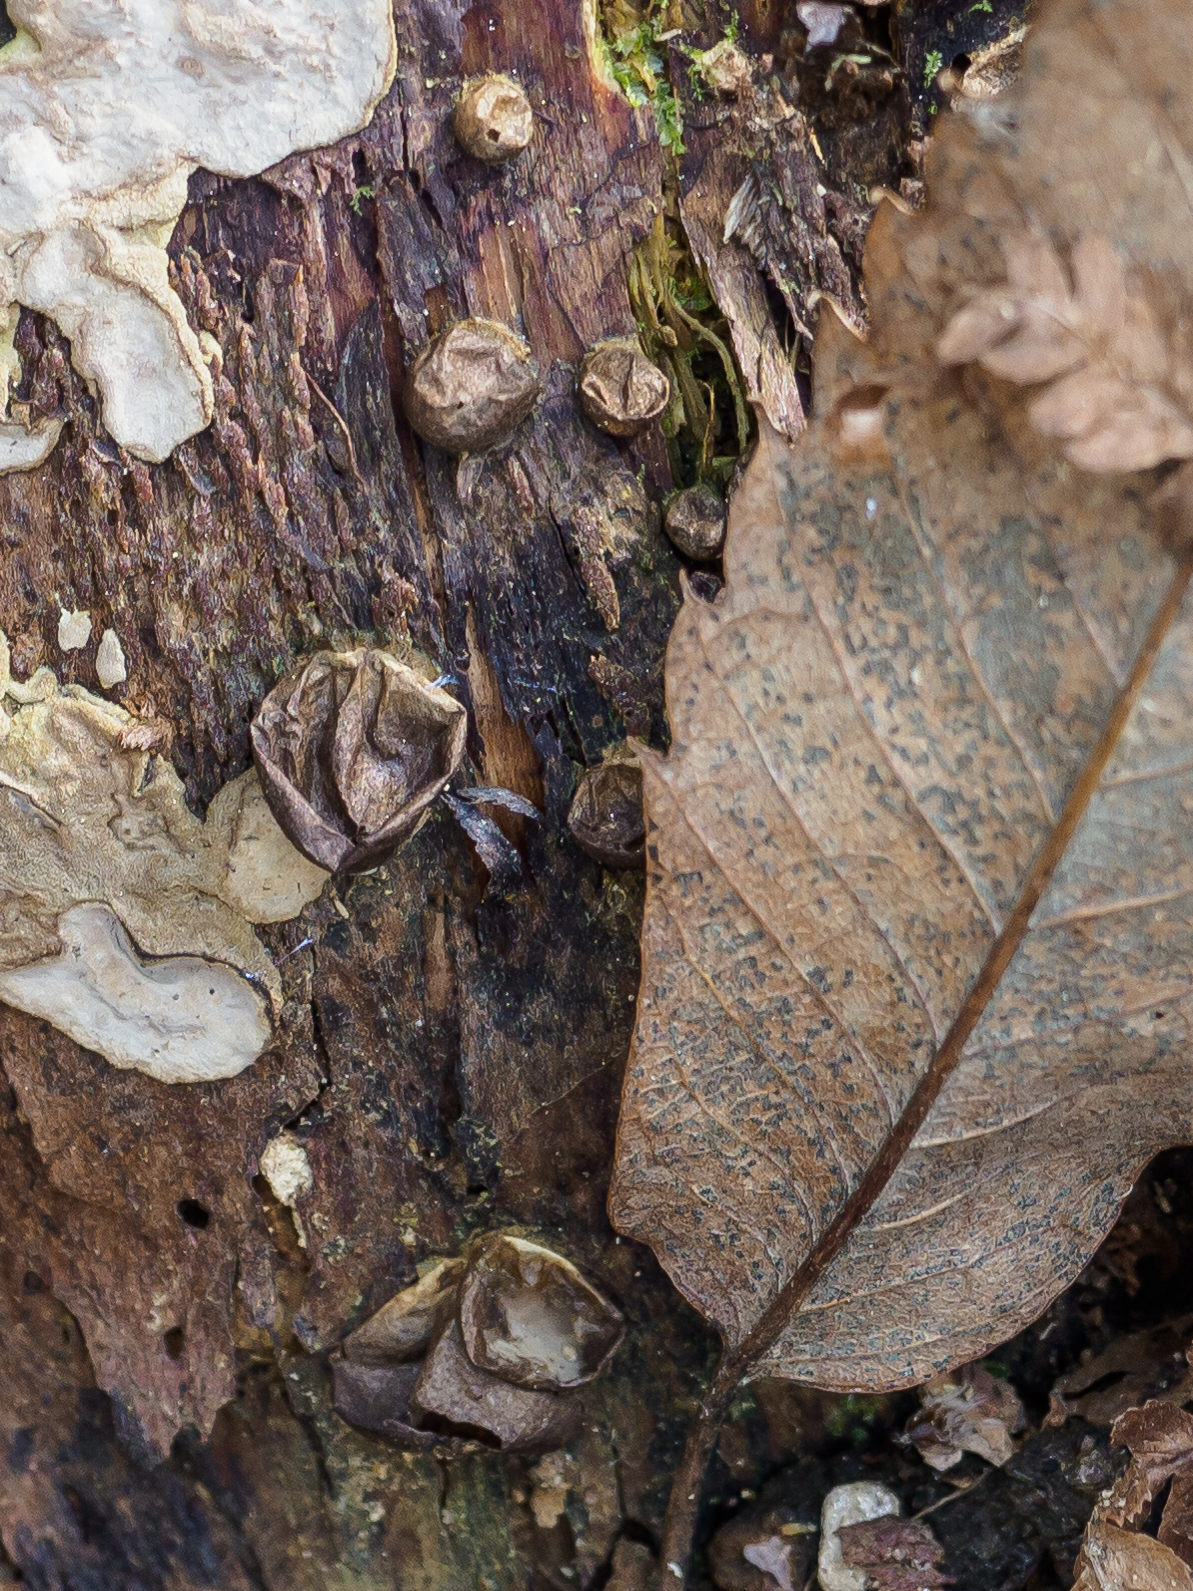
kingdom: Fungi
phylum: Basidiomycota
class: Agaricomycetes
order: Agaricales
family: Lycoperdaceae
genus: Apioperdon
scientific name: Apioperdon pyriforme
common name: Pear-shaped puffball
